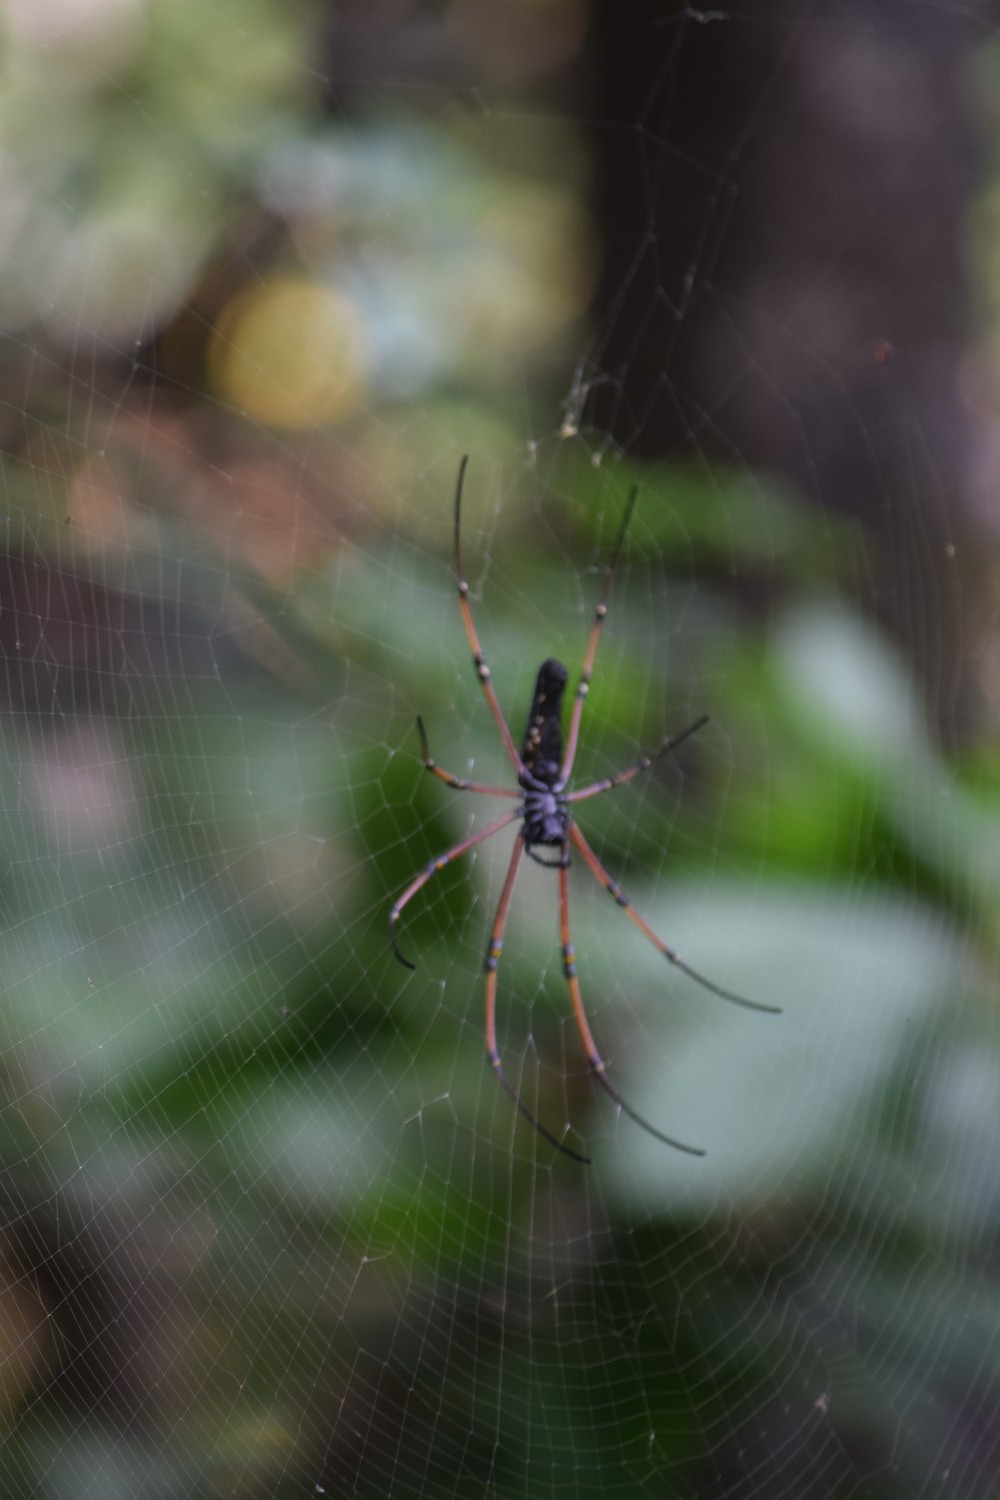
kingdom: Animalia
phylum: Arthropoda
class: Arachnida
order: Araneae
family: Araneidae
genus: Nephila
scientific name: Nephila kuhli
